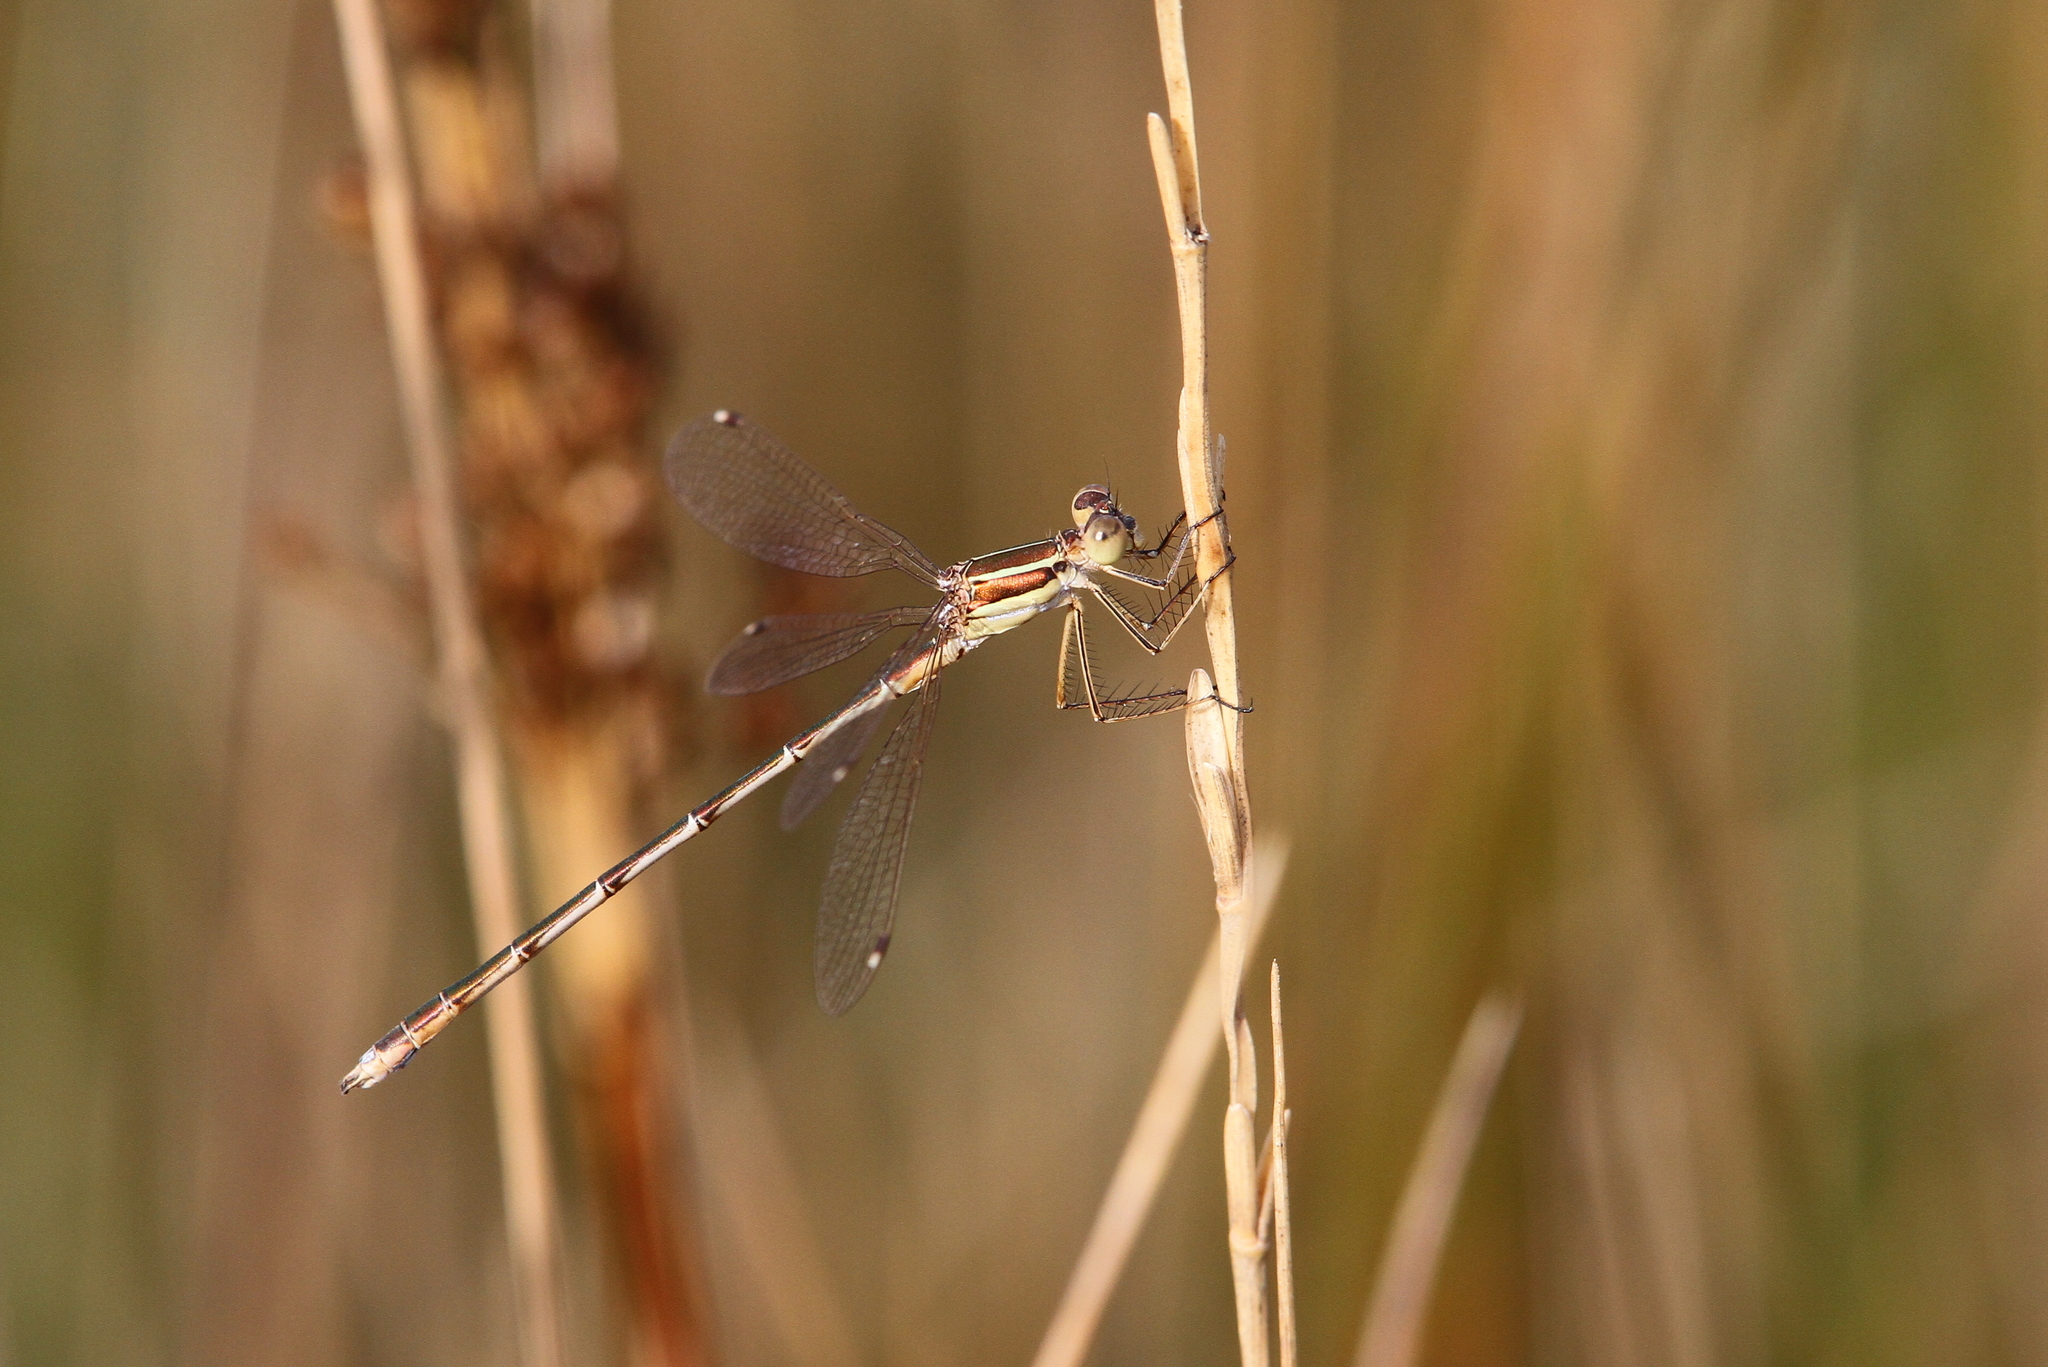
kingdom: Animalia
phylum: Arthropoda
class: Insecta
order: Odonata
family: Lestidae
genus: Lestes
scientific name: Lestes barbarus
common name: Migrant spreadwing
